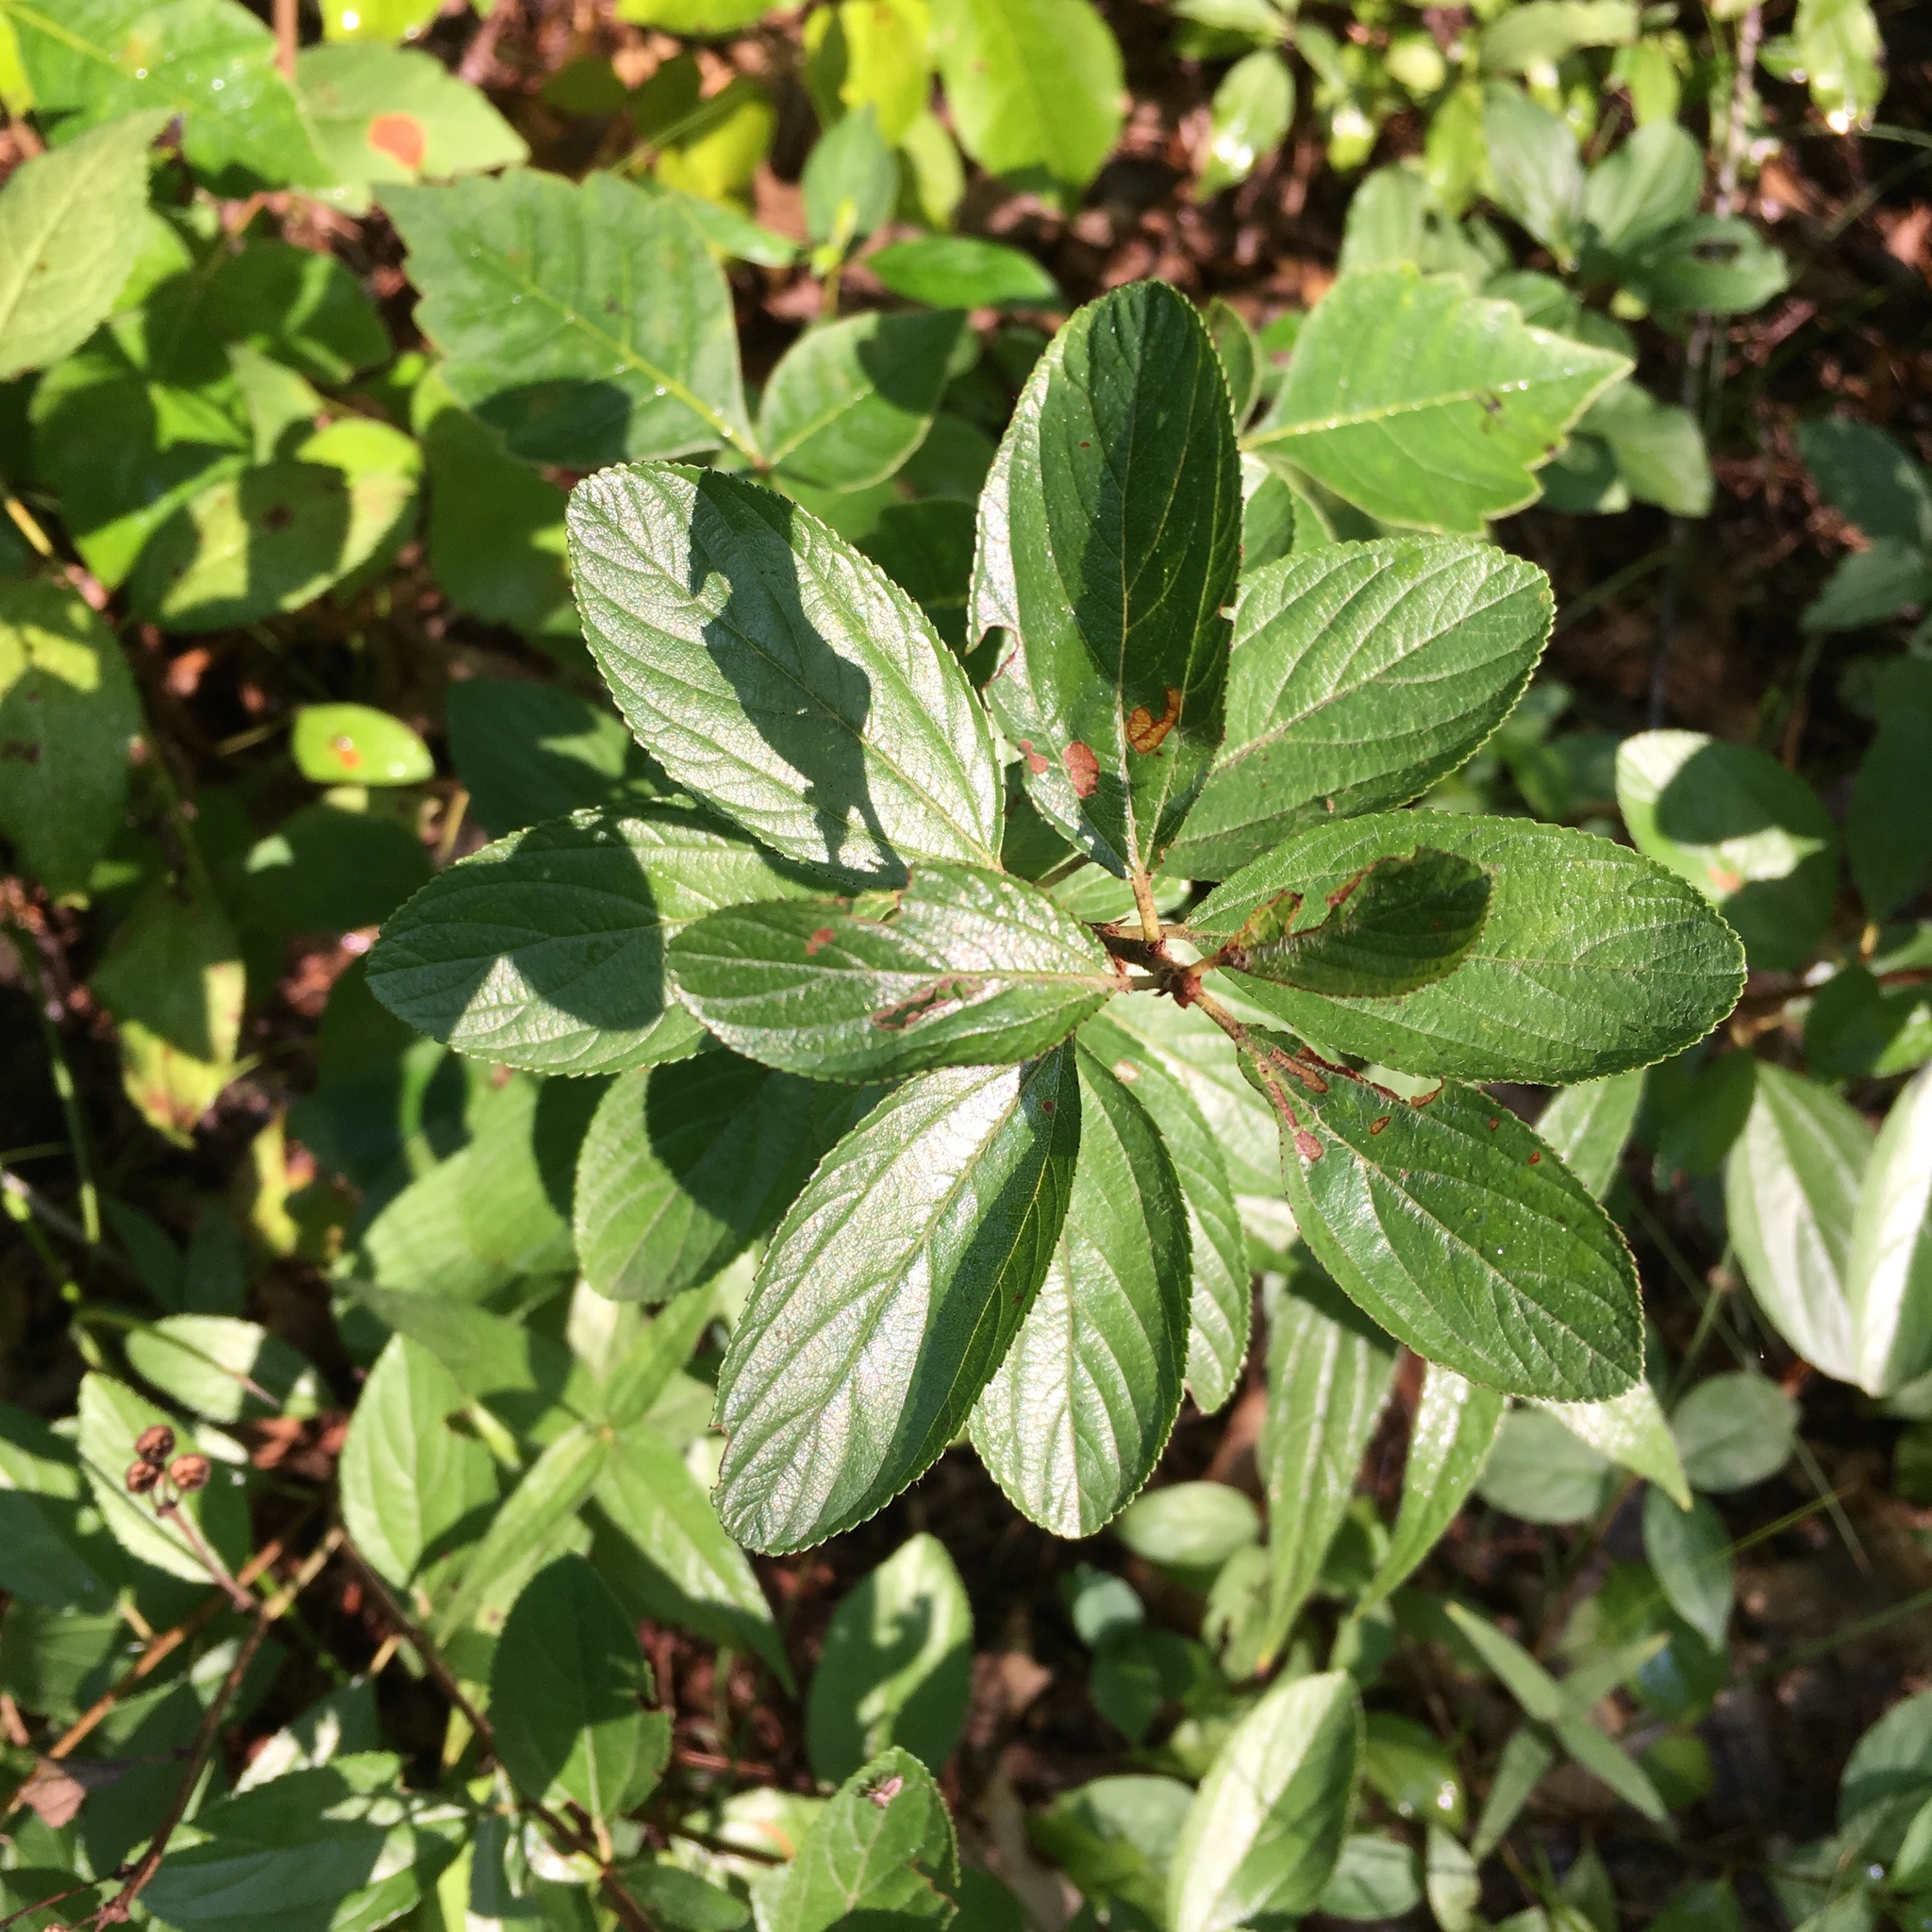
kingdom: Plantae
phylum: Tracheophyta
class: Magnoliopsida
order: Rosales
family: Rhamnaceae
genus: Ceanothus
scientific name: Ceanothus herbaceus
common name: Inland ceanothus
